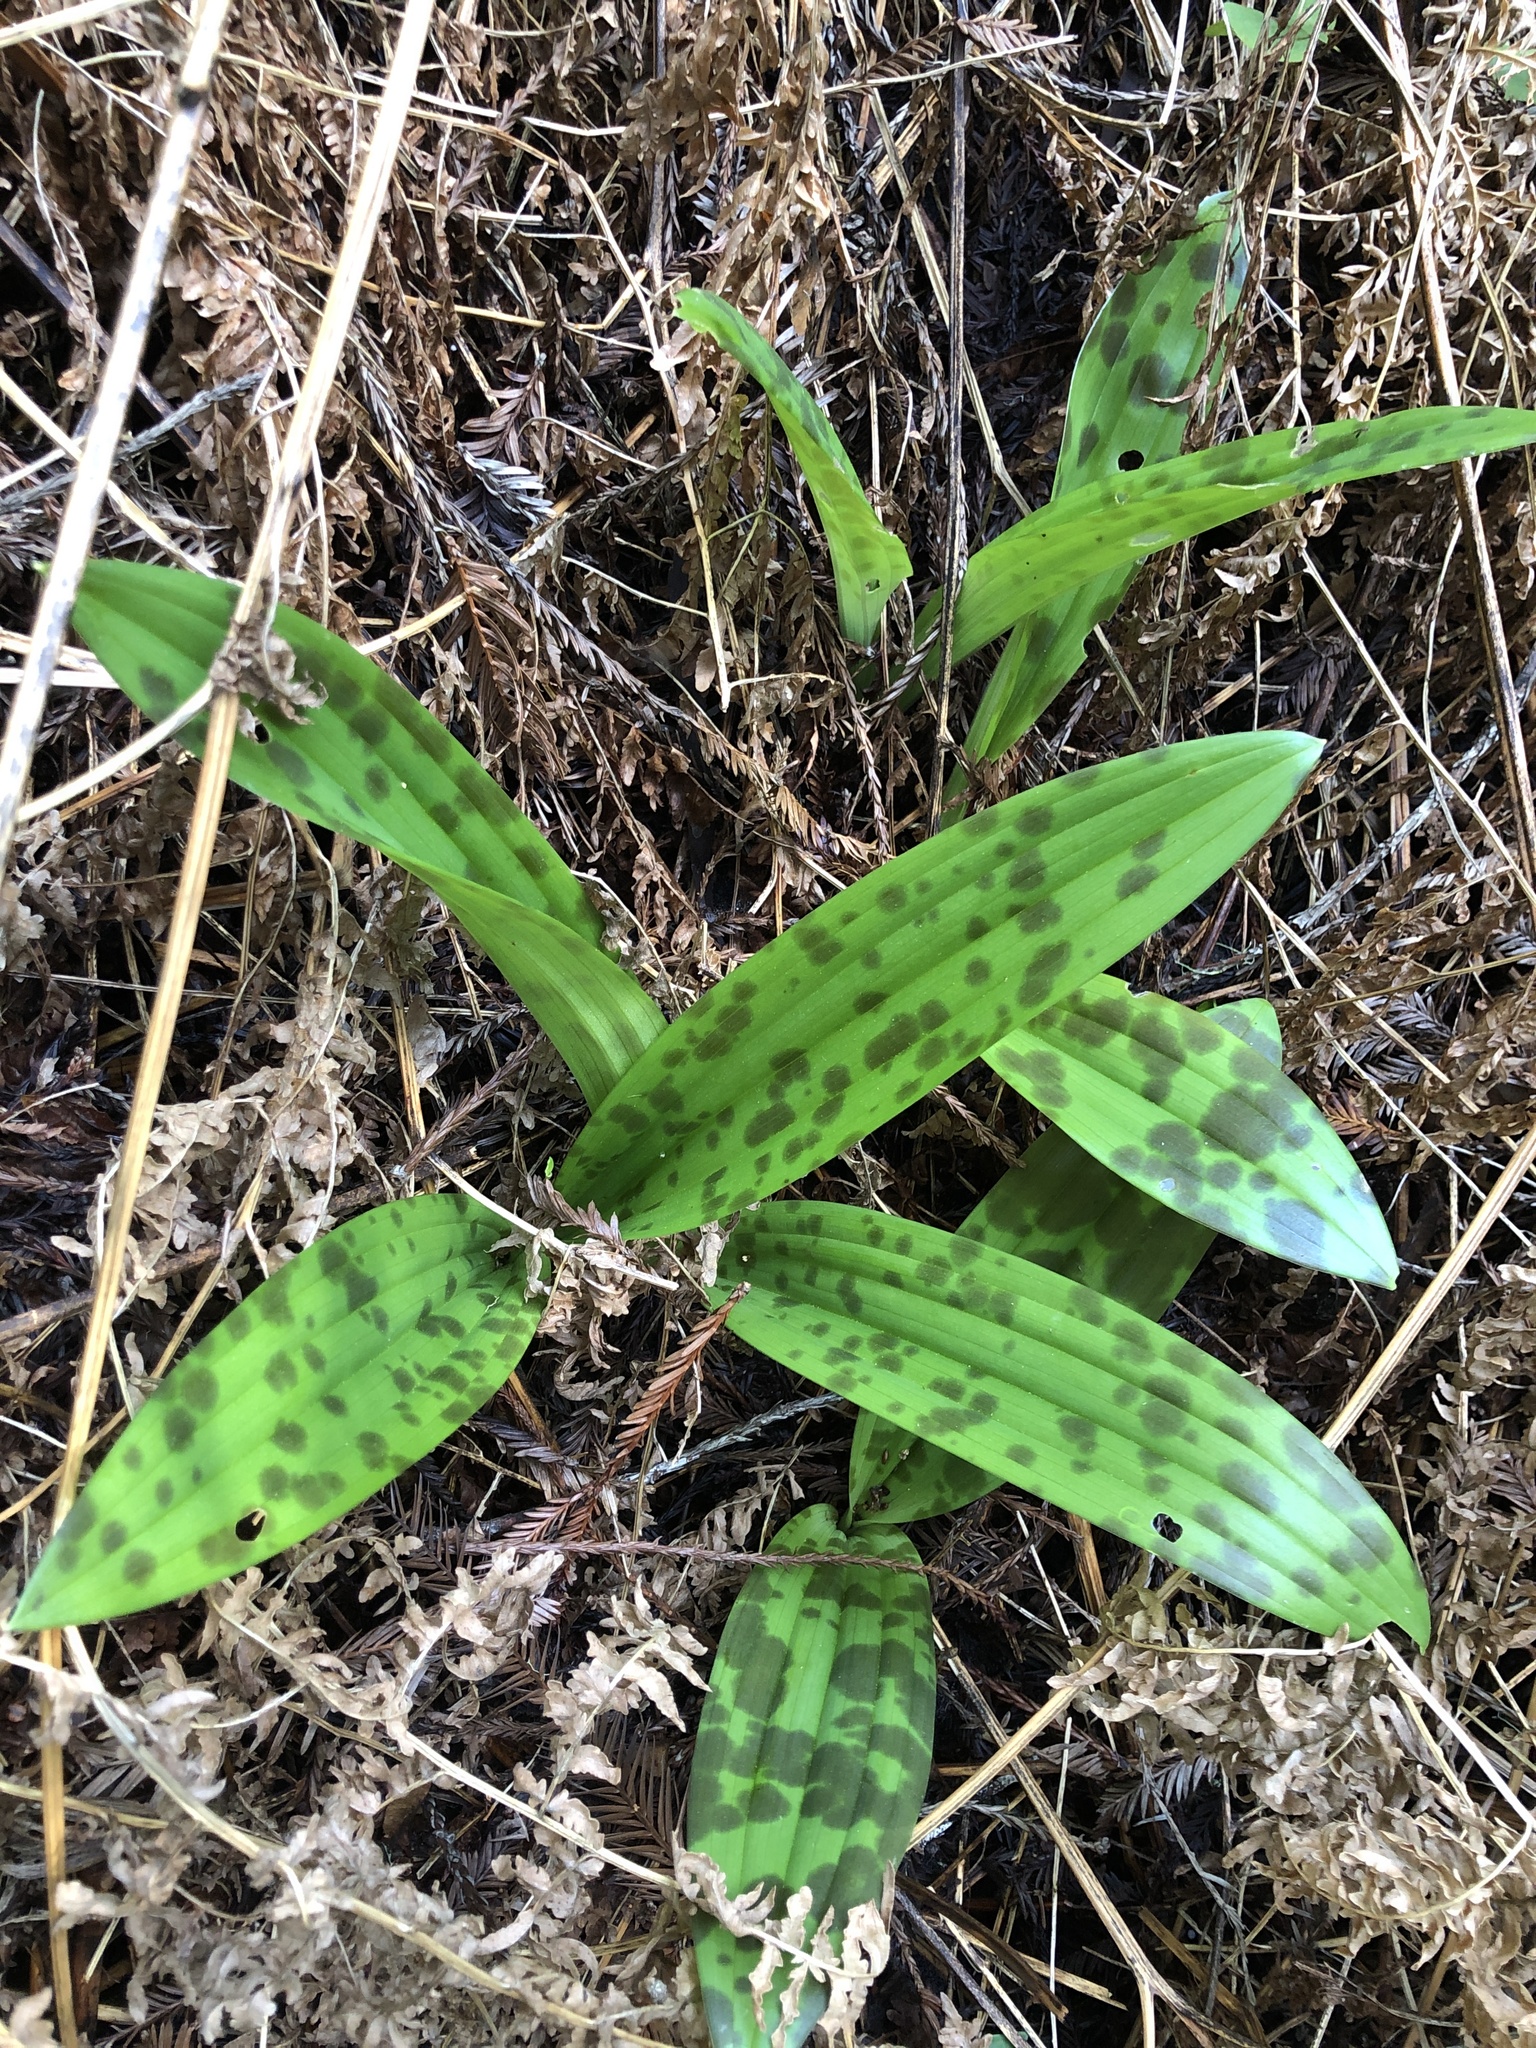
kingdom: Plantae
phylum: Tracheophyta
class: Liliopsida
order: Liliales
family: Liliaceae
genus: Scoliopus
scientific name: Scoliopus bigelovii
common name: Foetid adder's-tongue
